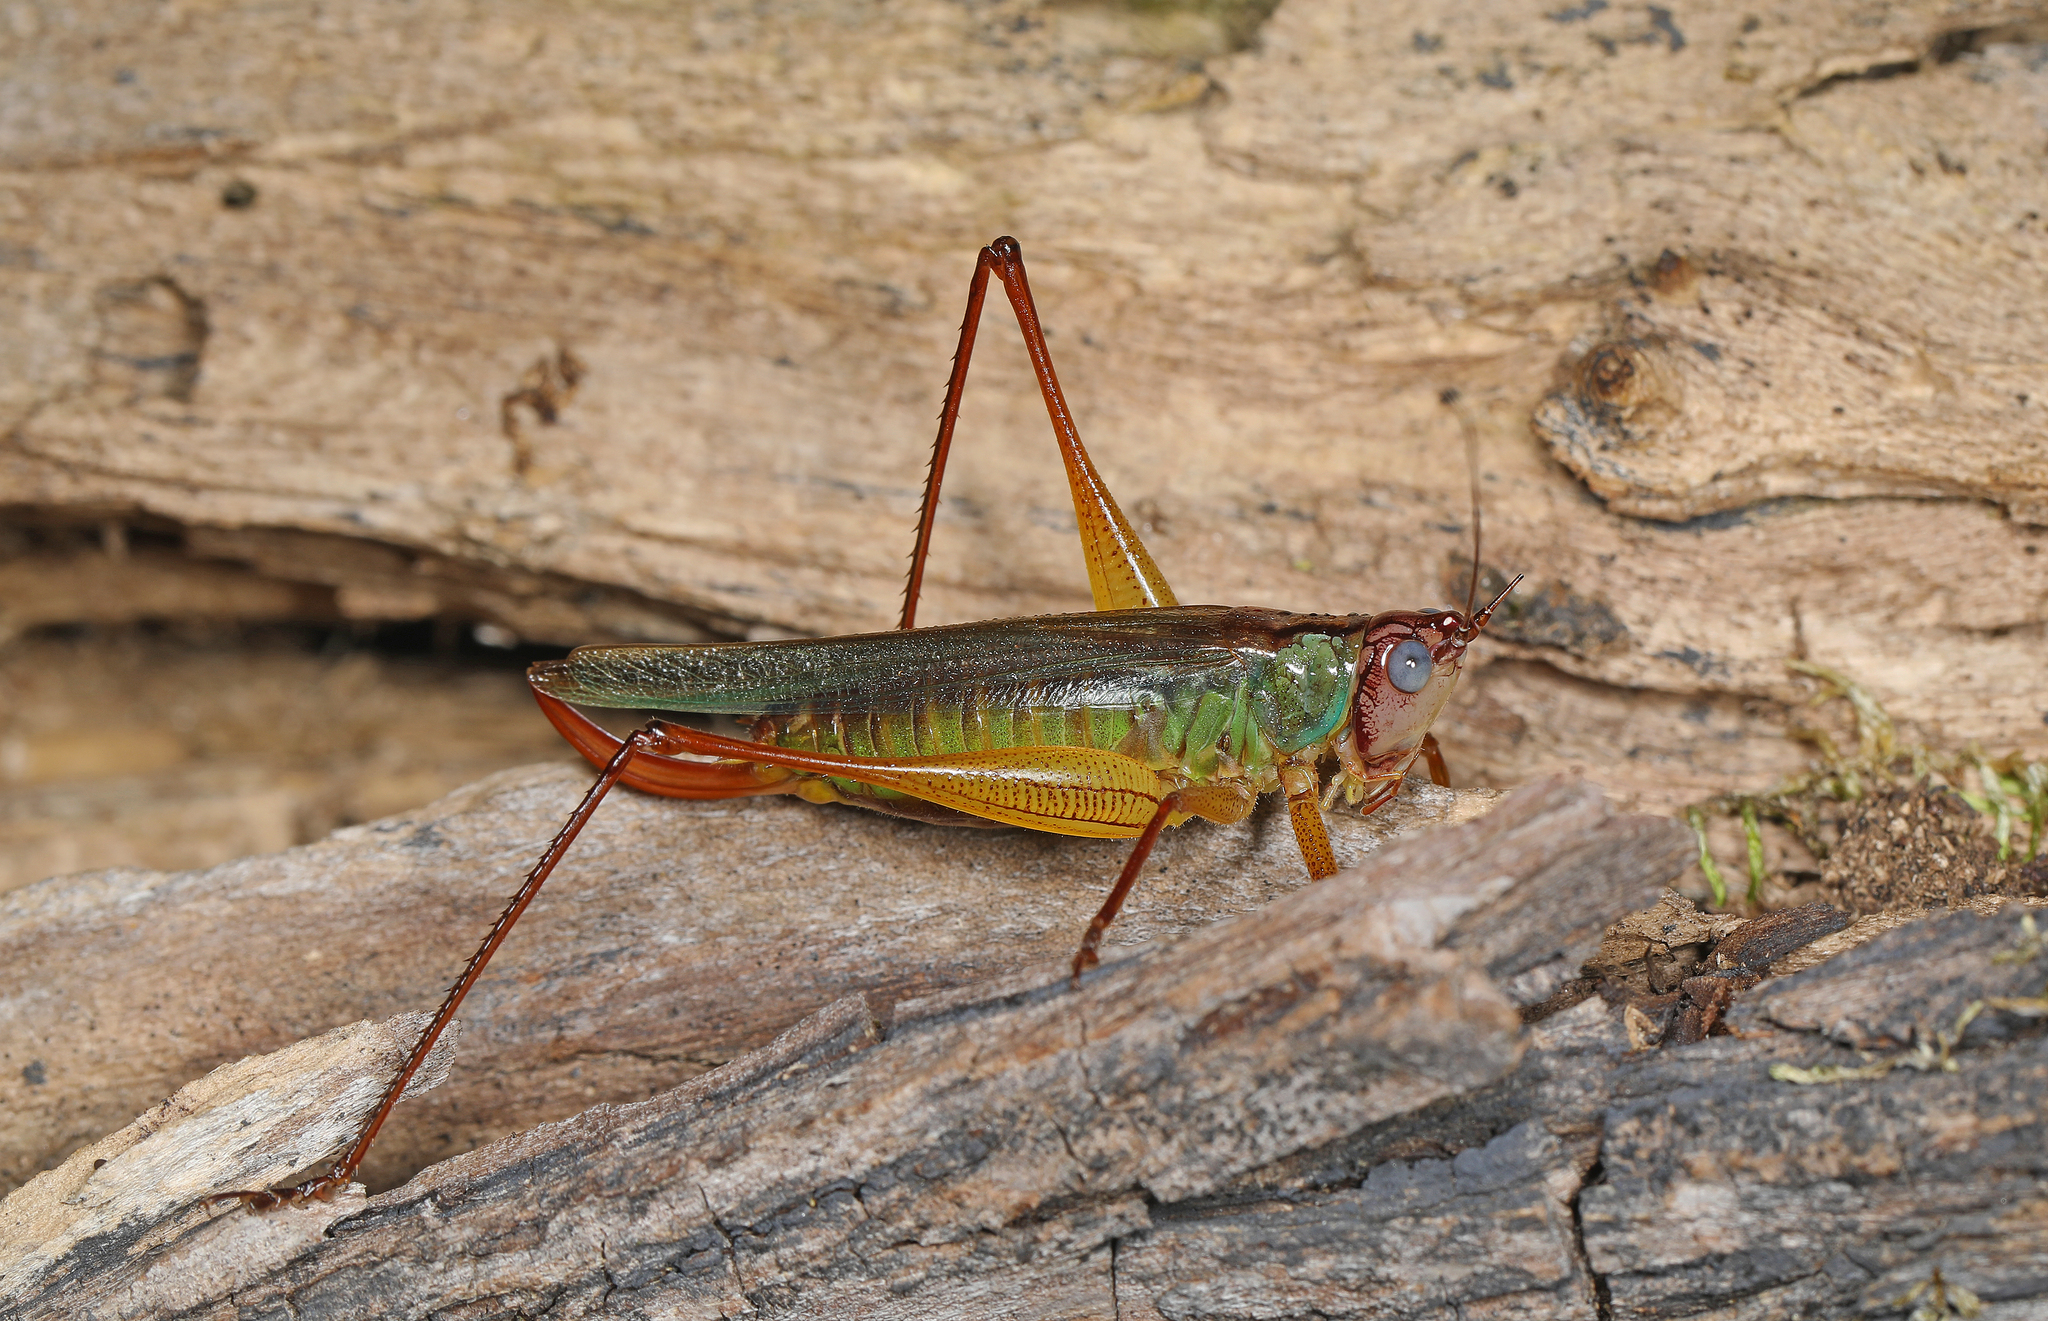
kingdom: Animalia
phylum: Arthropoda
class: Insecta
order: Orthoptera
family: Tettigoniidae
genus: Orchelimum
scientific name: Orchelimum pulchellum
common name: Handsome meadow katydid
